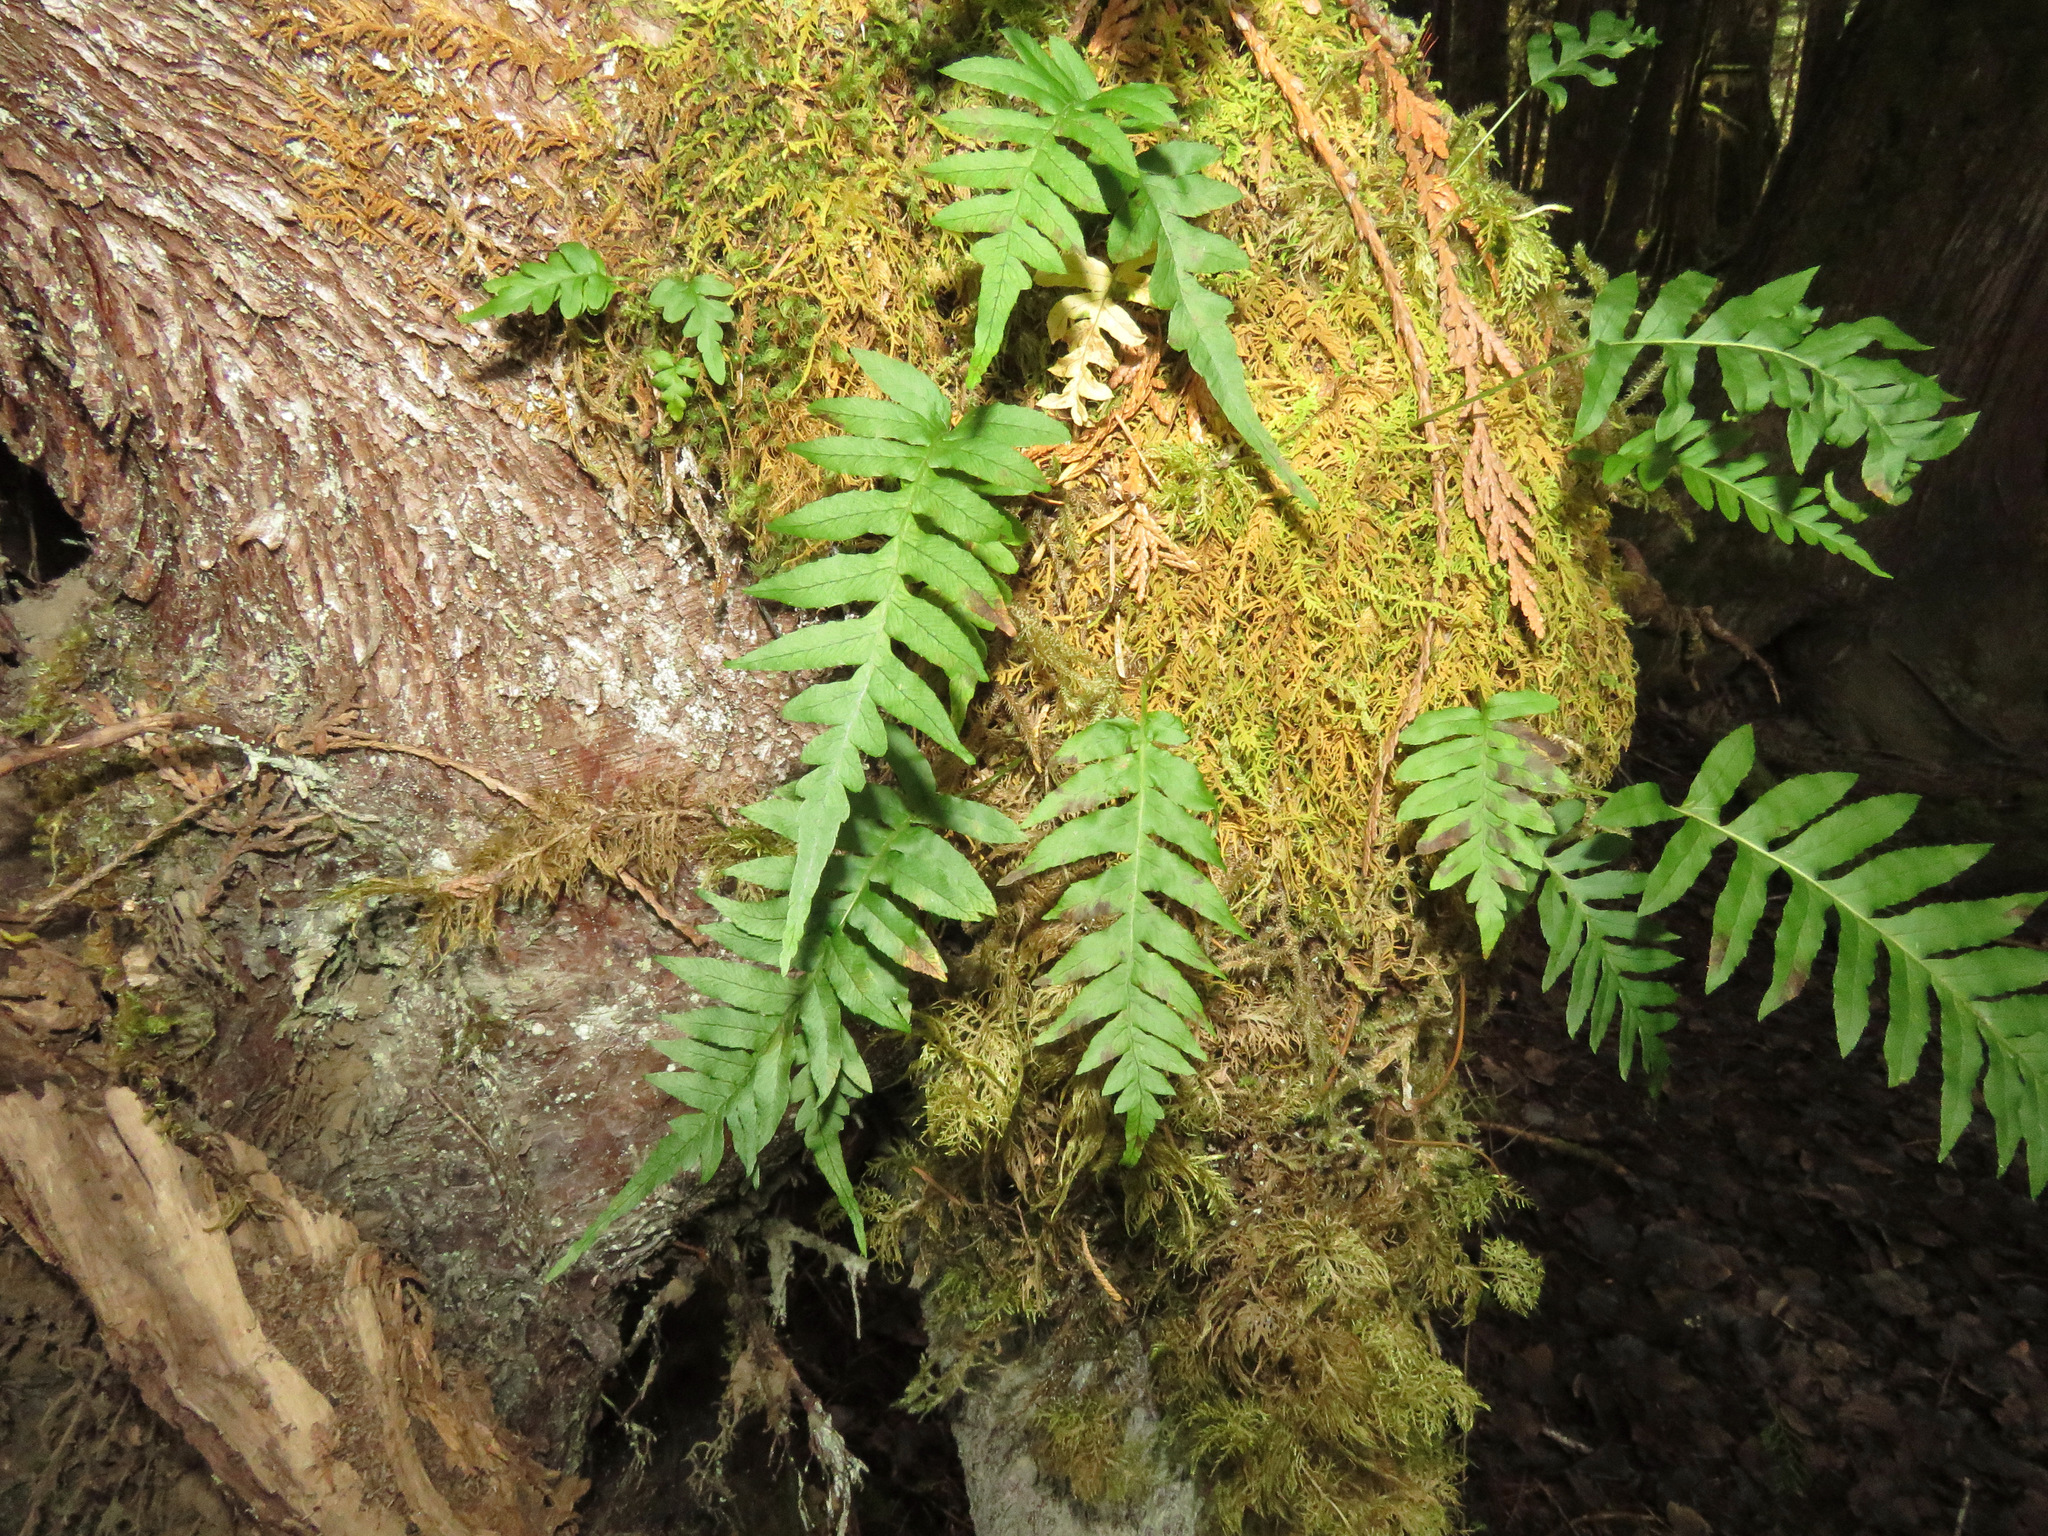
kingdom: Plantae
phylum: Tracheophyta
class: Polypodiopsida
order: Polypodiales
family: Polypodiaceae
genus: Polypodium
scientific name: Polypodium glycyrrhiza
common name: Licorice fern
